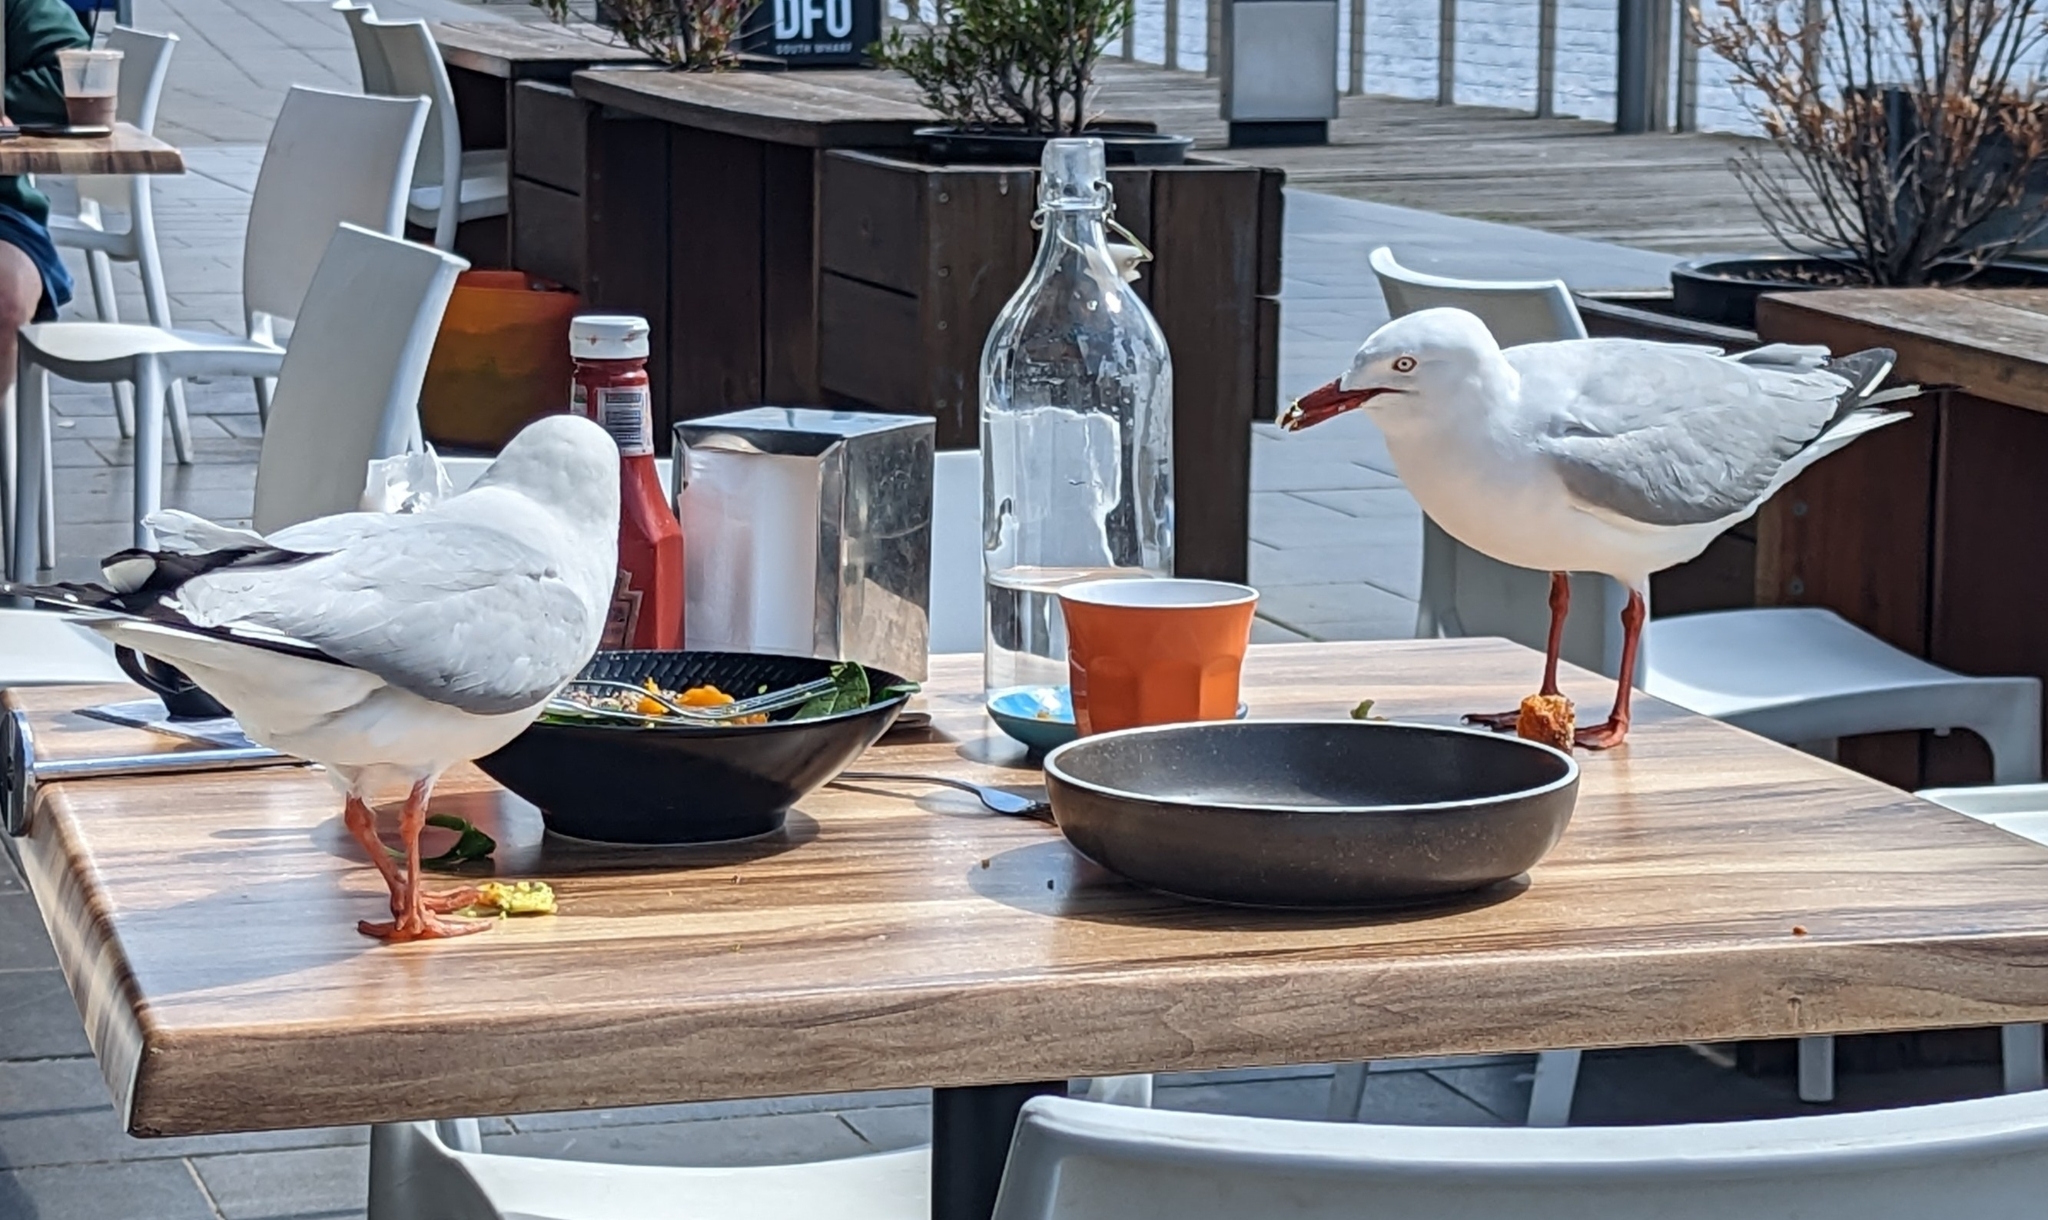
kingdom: Animalia
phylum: Chordata
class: Aves
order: Charadriiformes
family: Laridae
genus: Chroicocephalus
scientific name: Chroicocephalus novaehollandiae
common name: Silver gull
